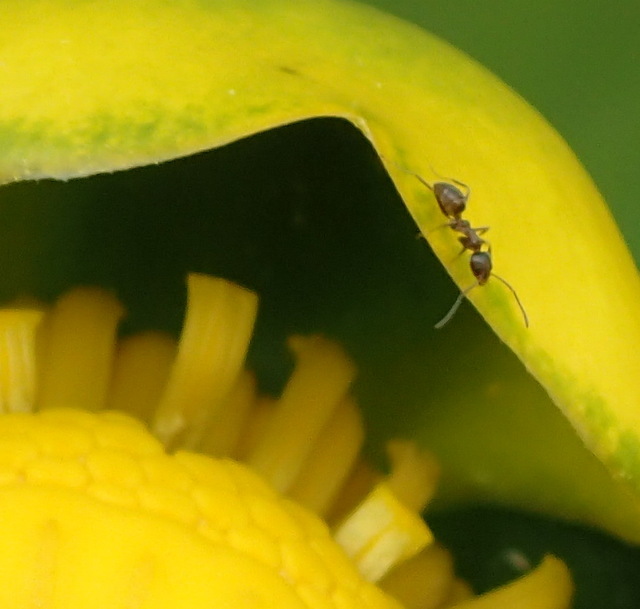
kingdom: Animalia
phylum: Arthropoda
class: Insecta
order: Hymenoptera
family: Formicidae
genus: Linepithema
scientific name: Linepithema humile
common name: Argentine ant
